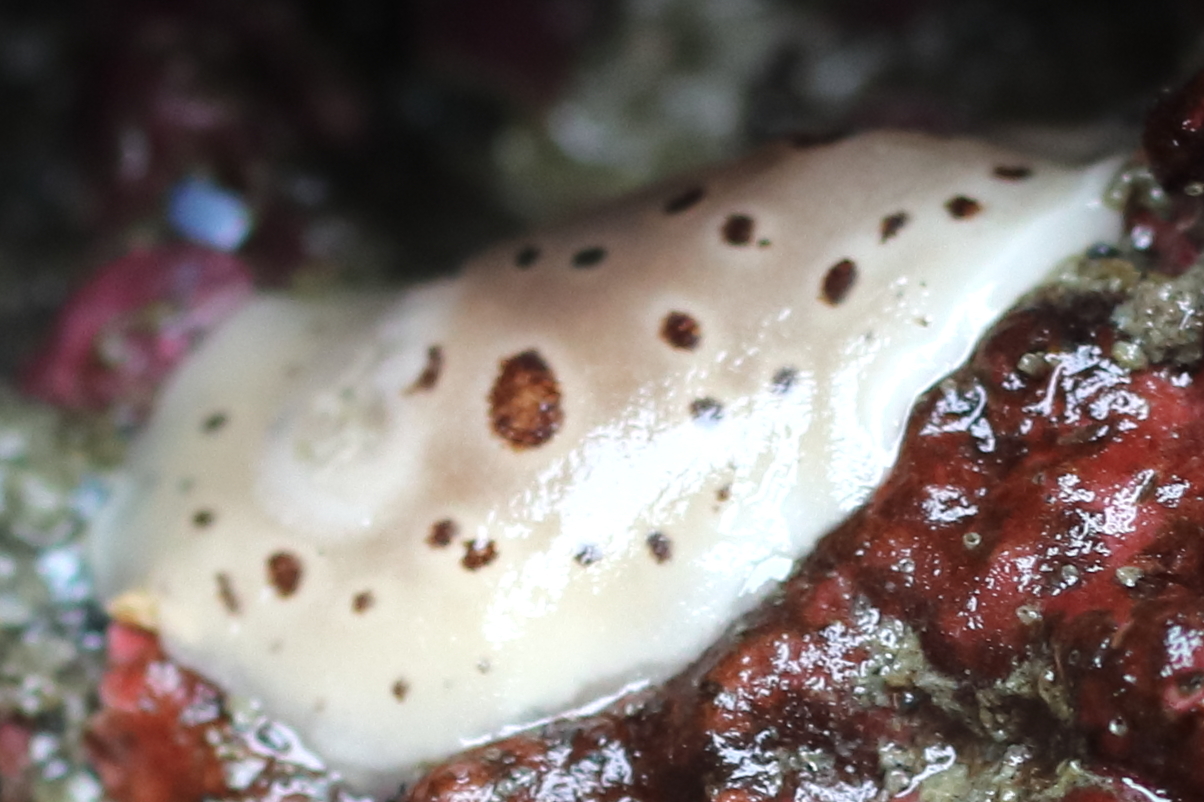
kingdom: Animalia
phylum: Mollusca
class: Gastropoda
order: Nudibranchia
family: Discodorididae
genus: Diaulula
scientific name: Diaulula odonoghuei
